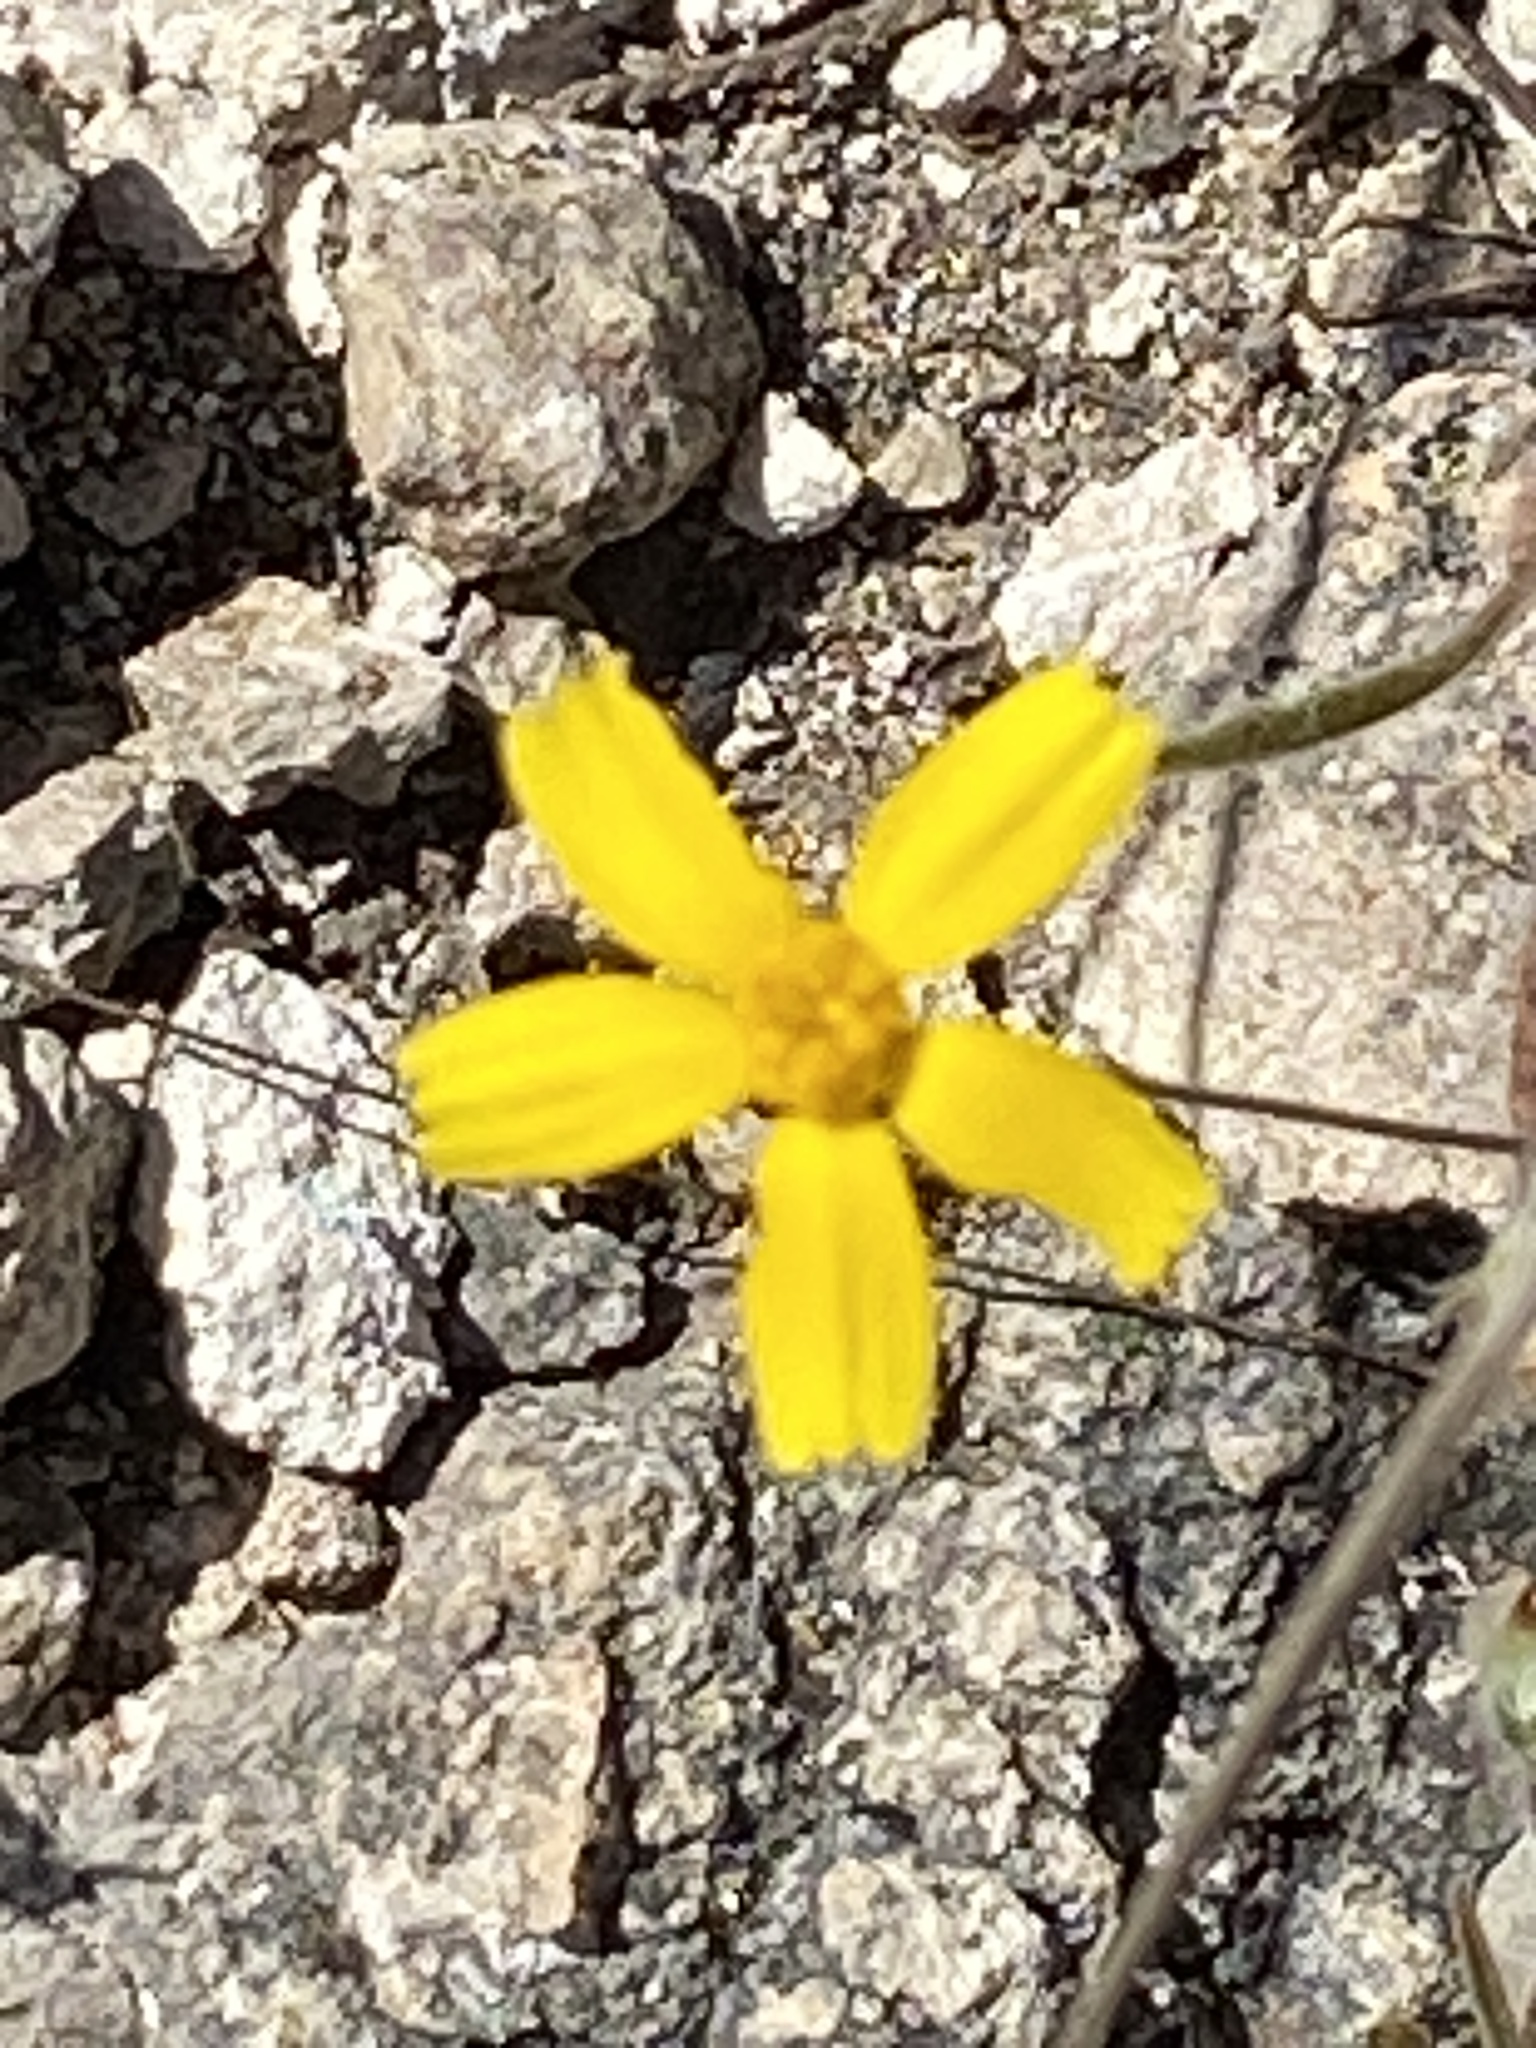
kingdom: Plantae
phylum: Tracheophyta
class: Magnoliopsida
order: Asterales
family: Asteraceae
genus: Tetraneuris
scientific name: Tetraneuris linearifolia
